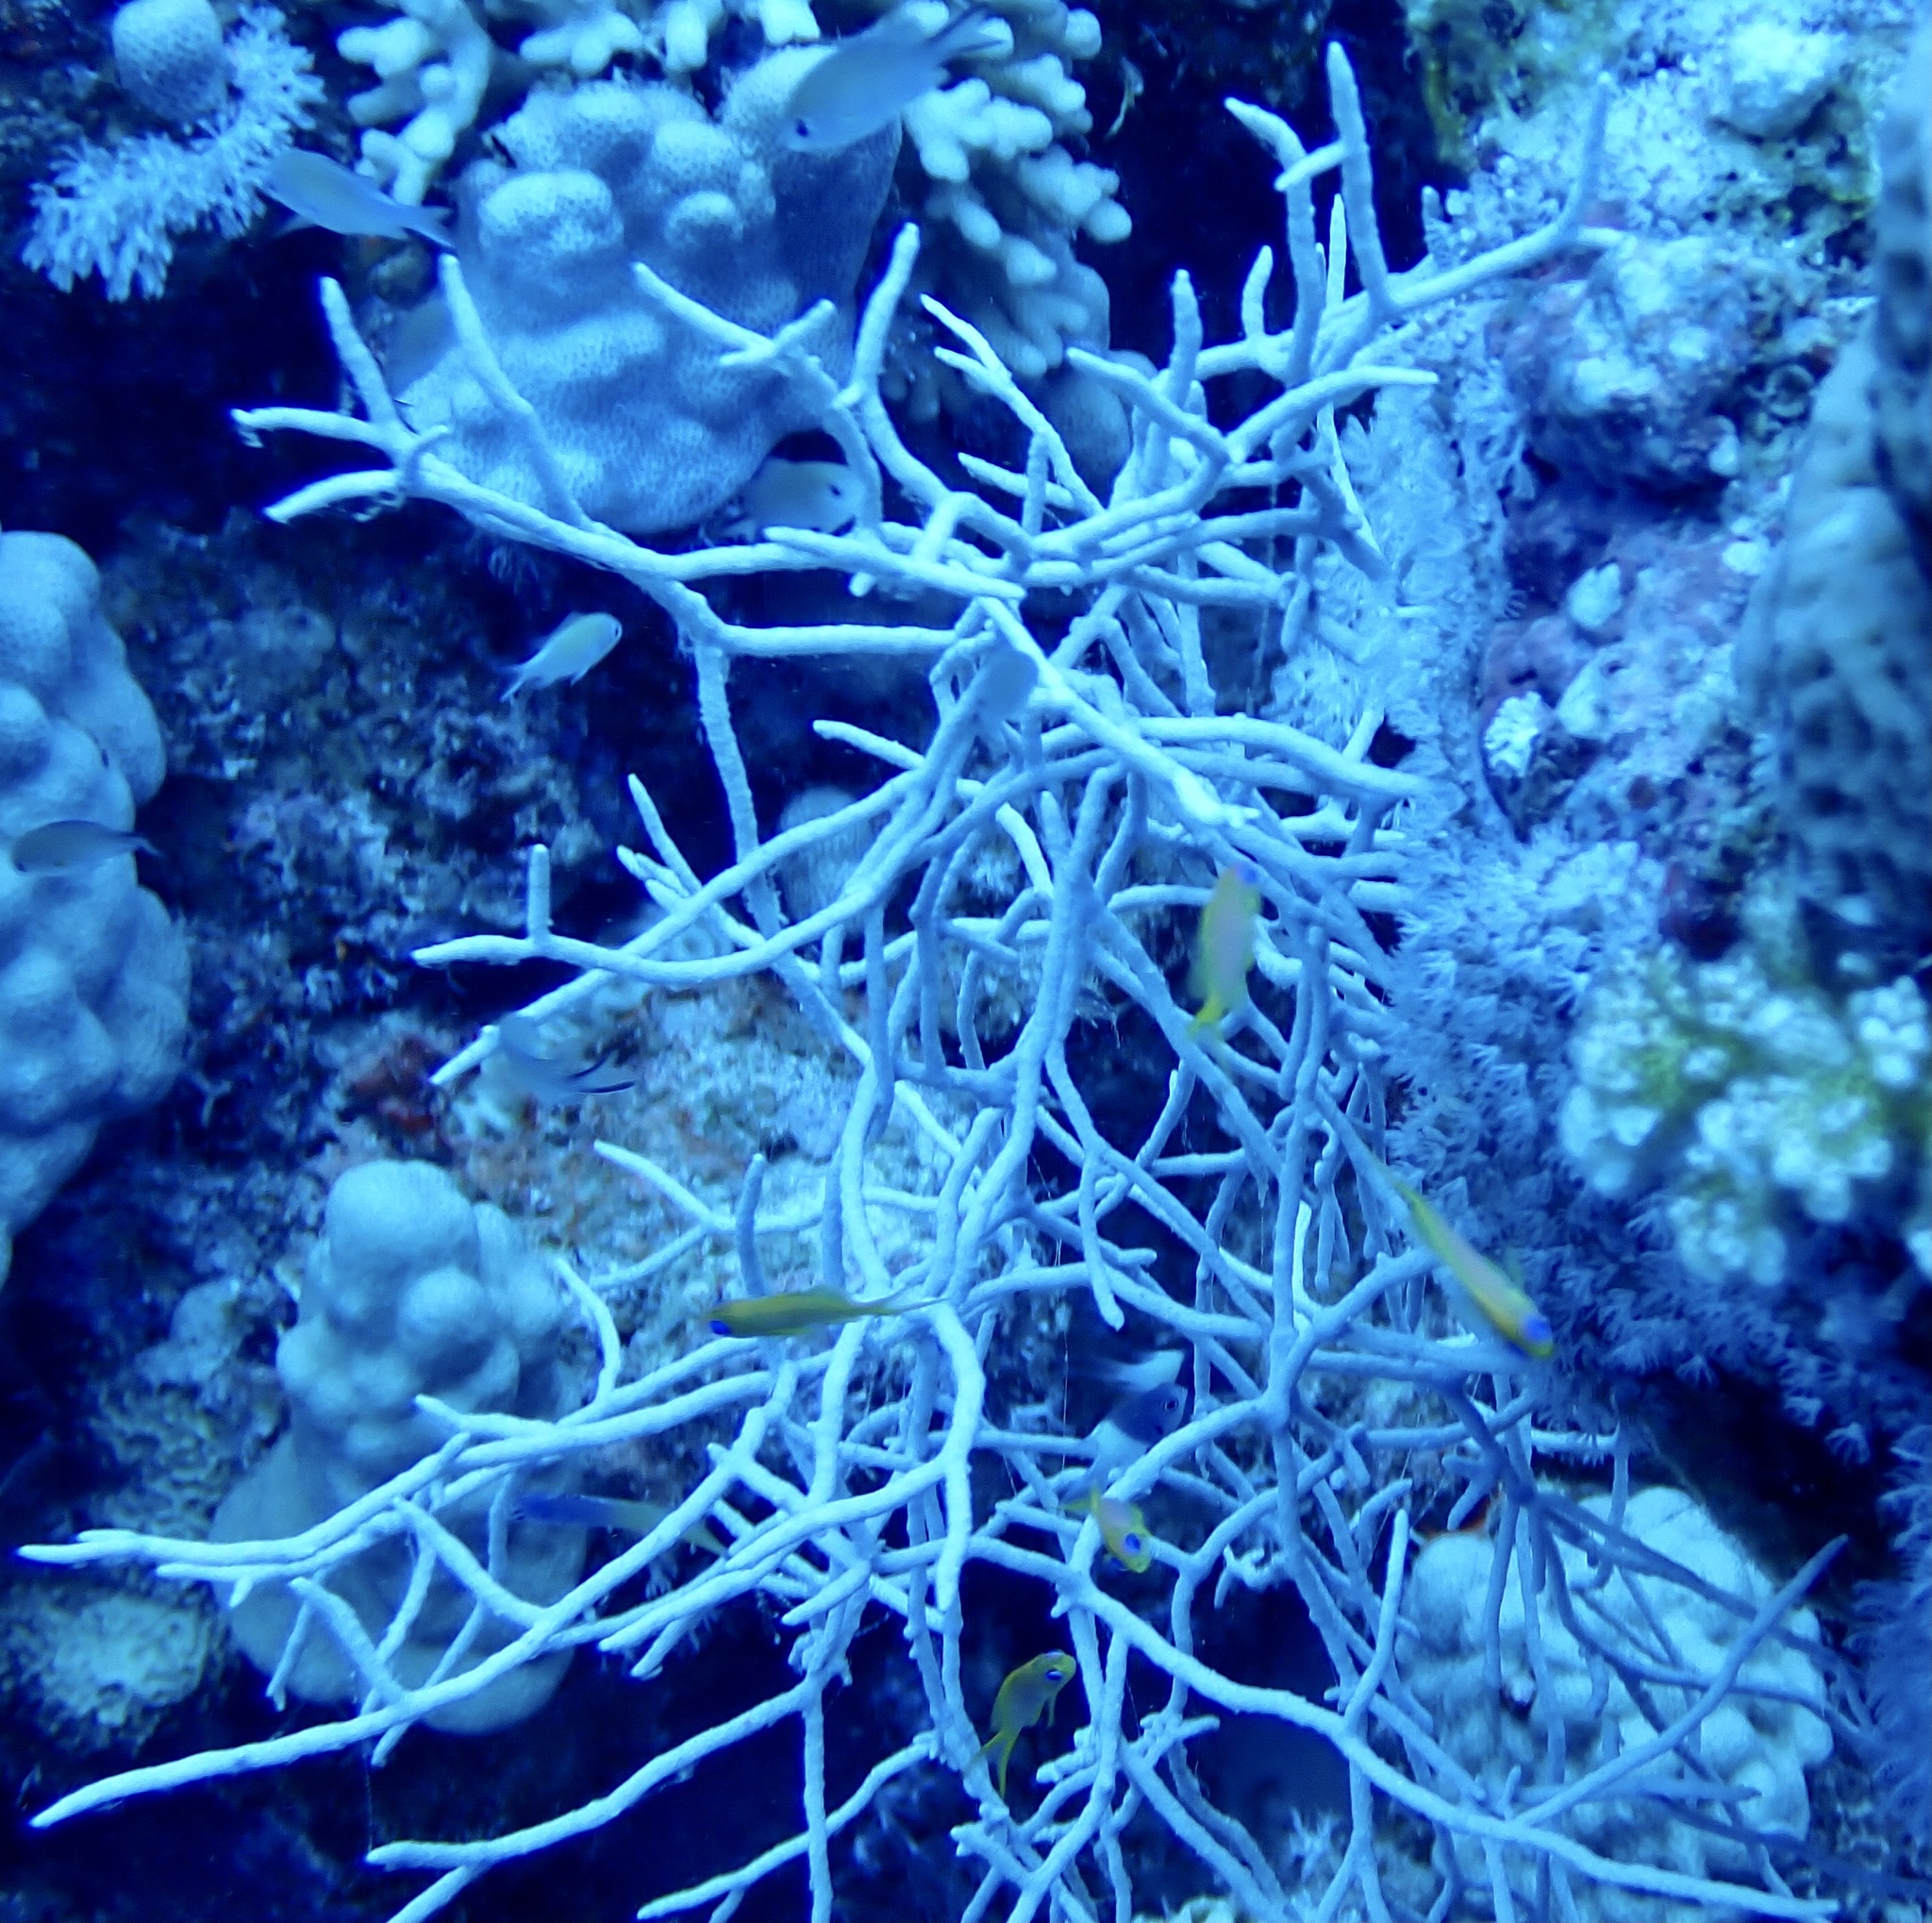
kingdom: Animalia
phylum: Cnidaria
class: Anthozoa
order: Malacalcyonacea
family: Melithaeidae
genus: Melithaea
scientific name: Melithaea rubrinodis
